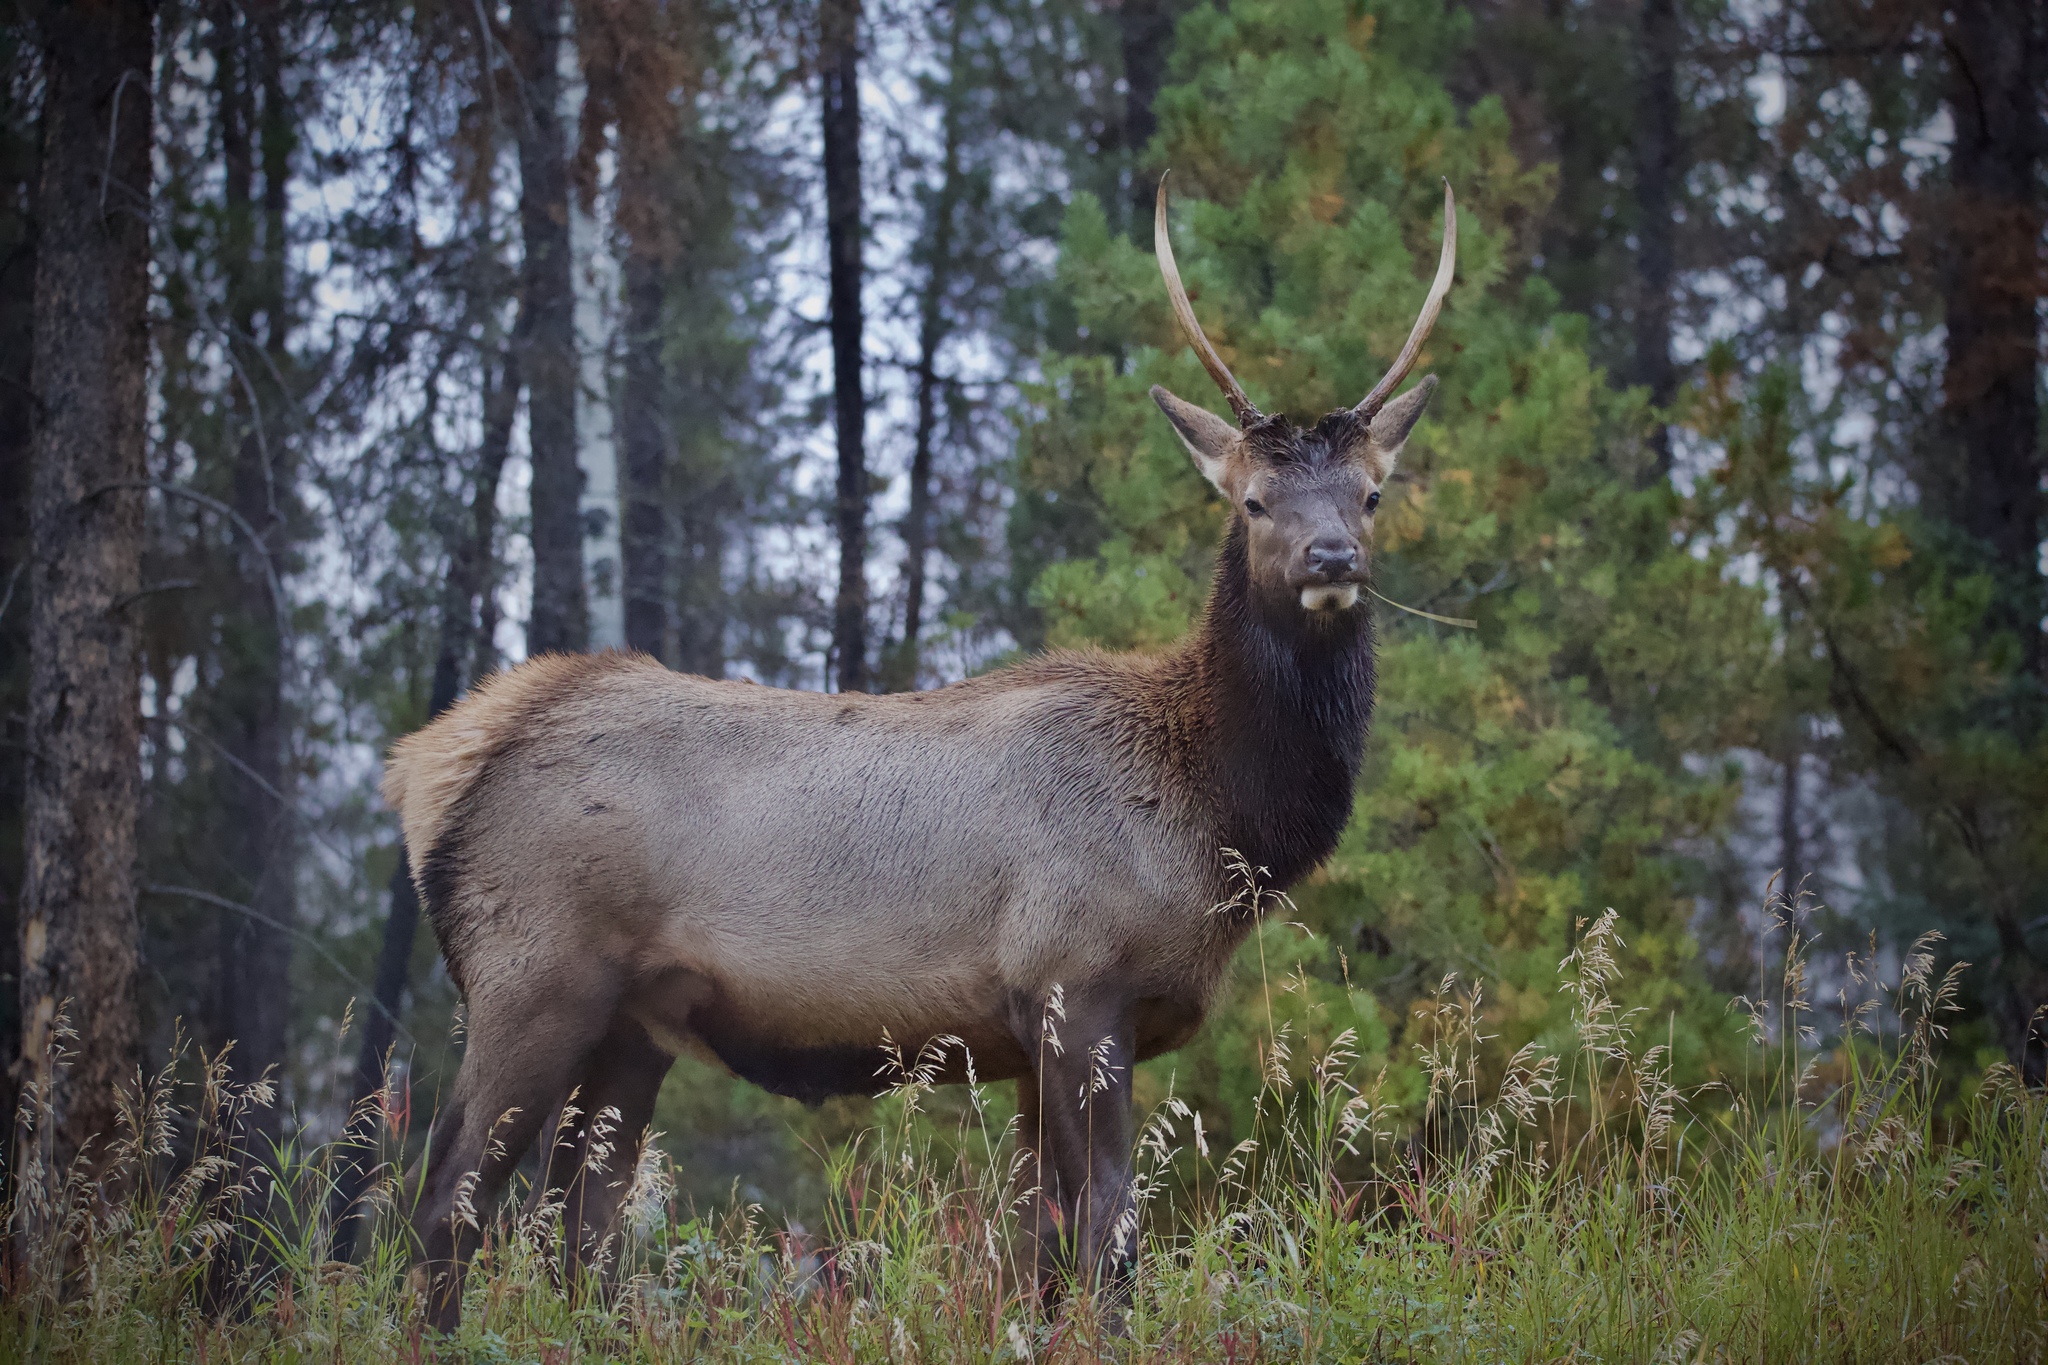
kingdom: Animalia
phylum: Chordata
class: Mammalia
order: Artiodactyla
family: Cervidae
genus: Cervus
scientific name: Cervus elaphus
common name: Red deer
